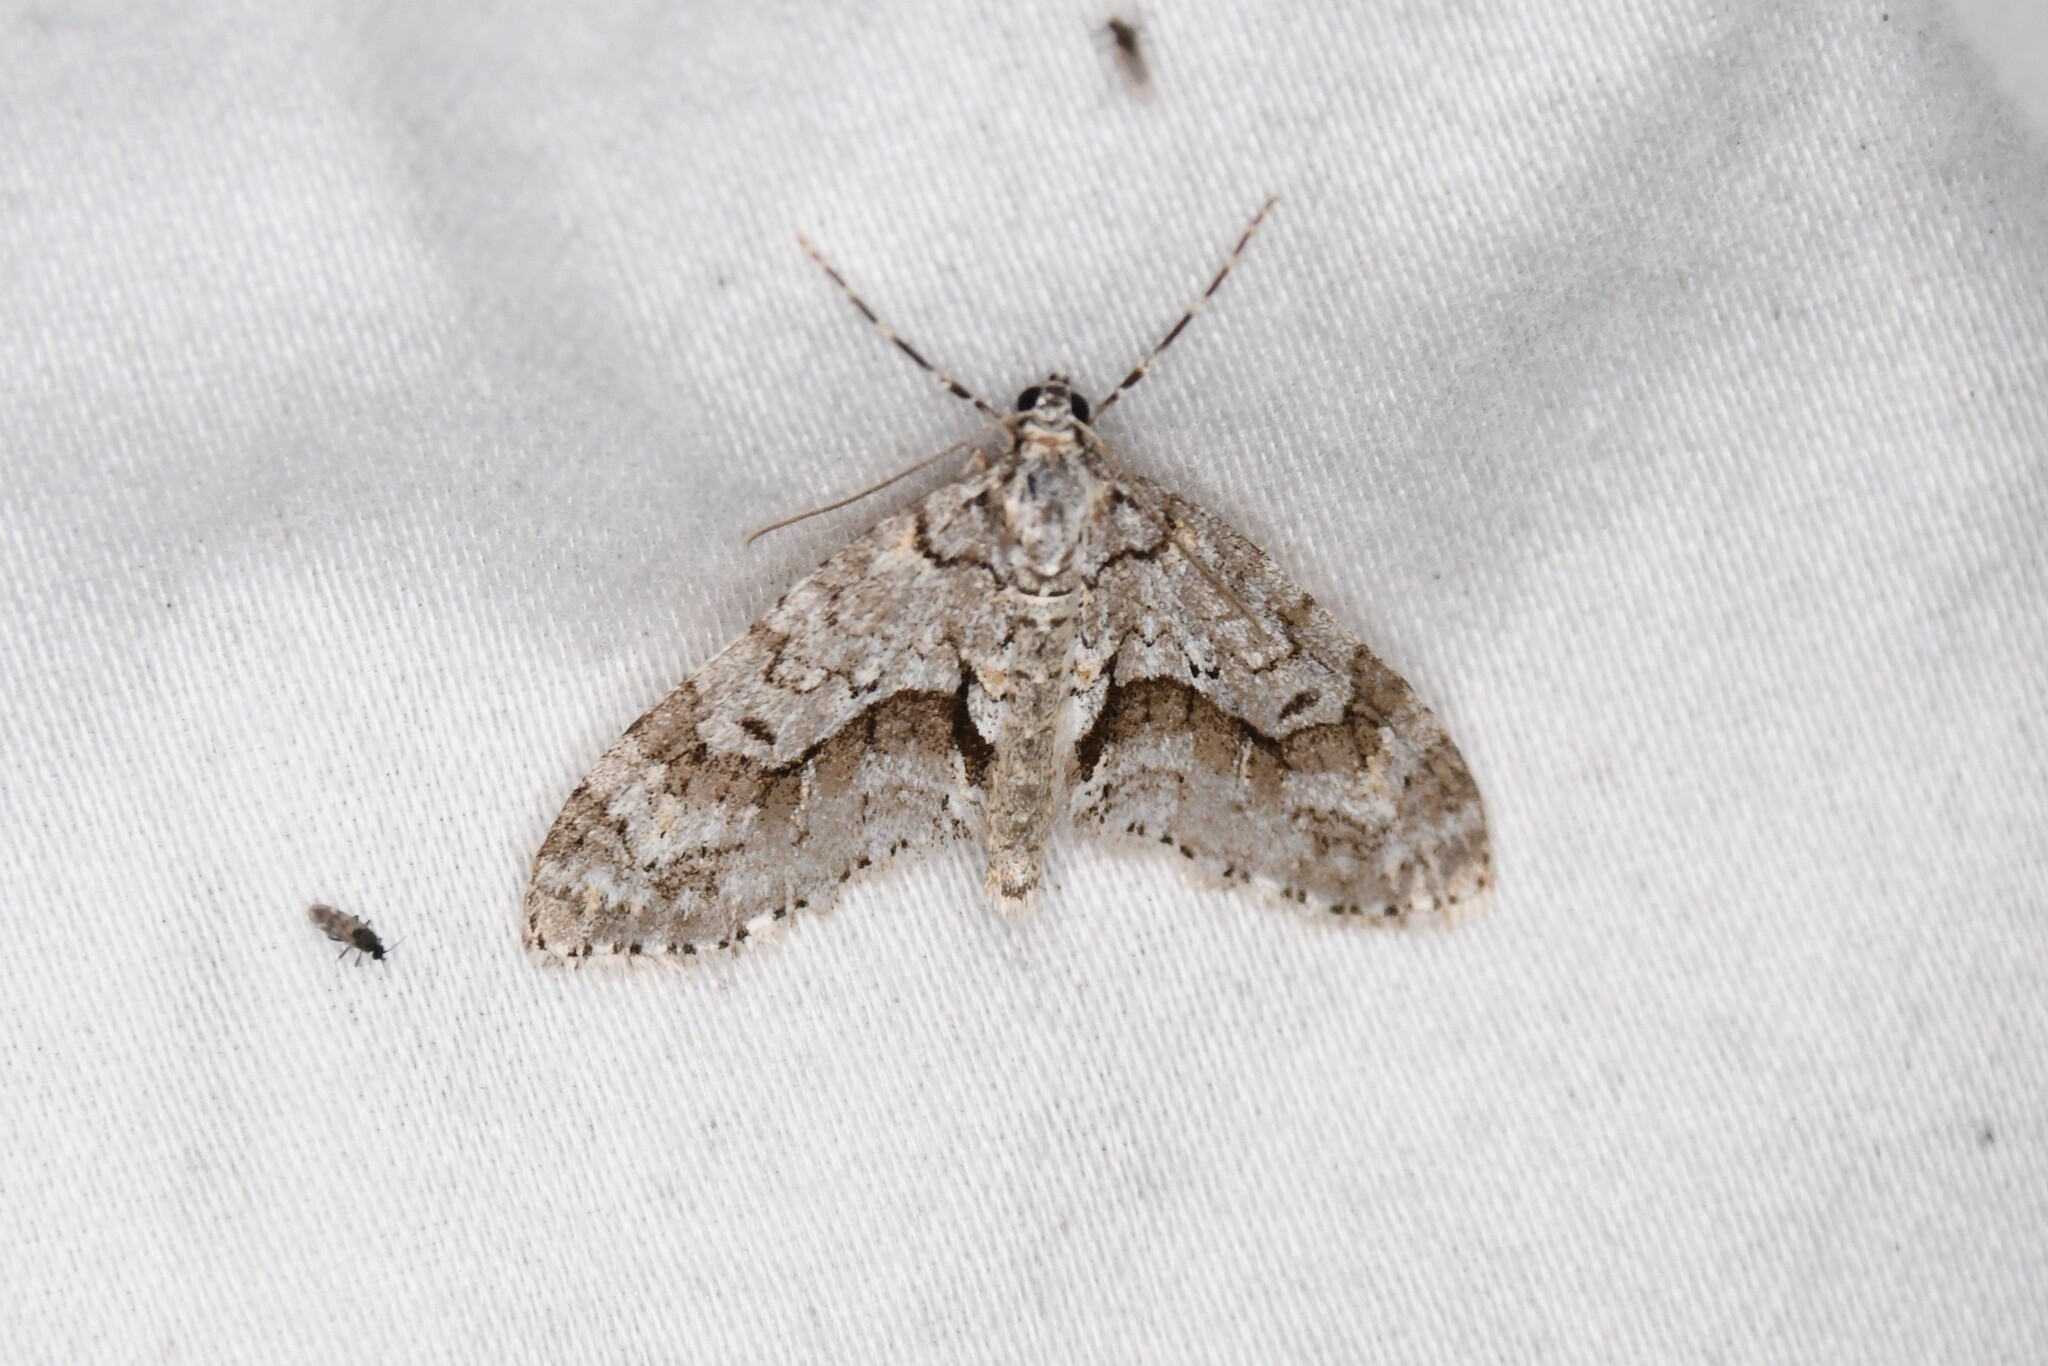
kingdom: Animalia
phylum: Arthropoda
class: Insecta
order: Lepidoptera
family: Geometridae
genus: Cladara
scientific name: Cladara limitaria
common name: Mottled gray carpet
